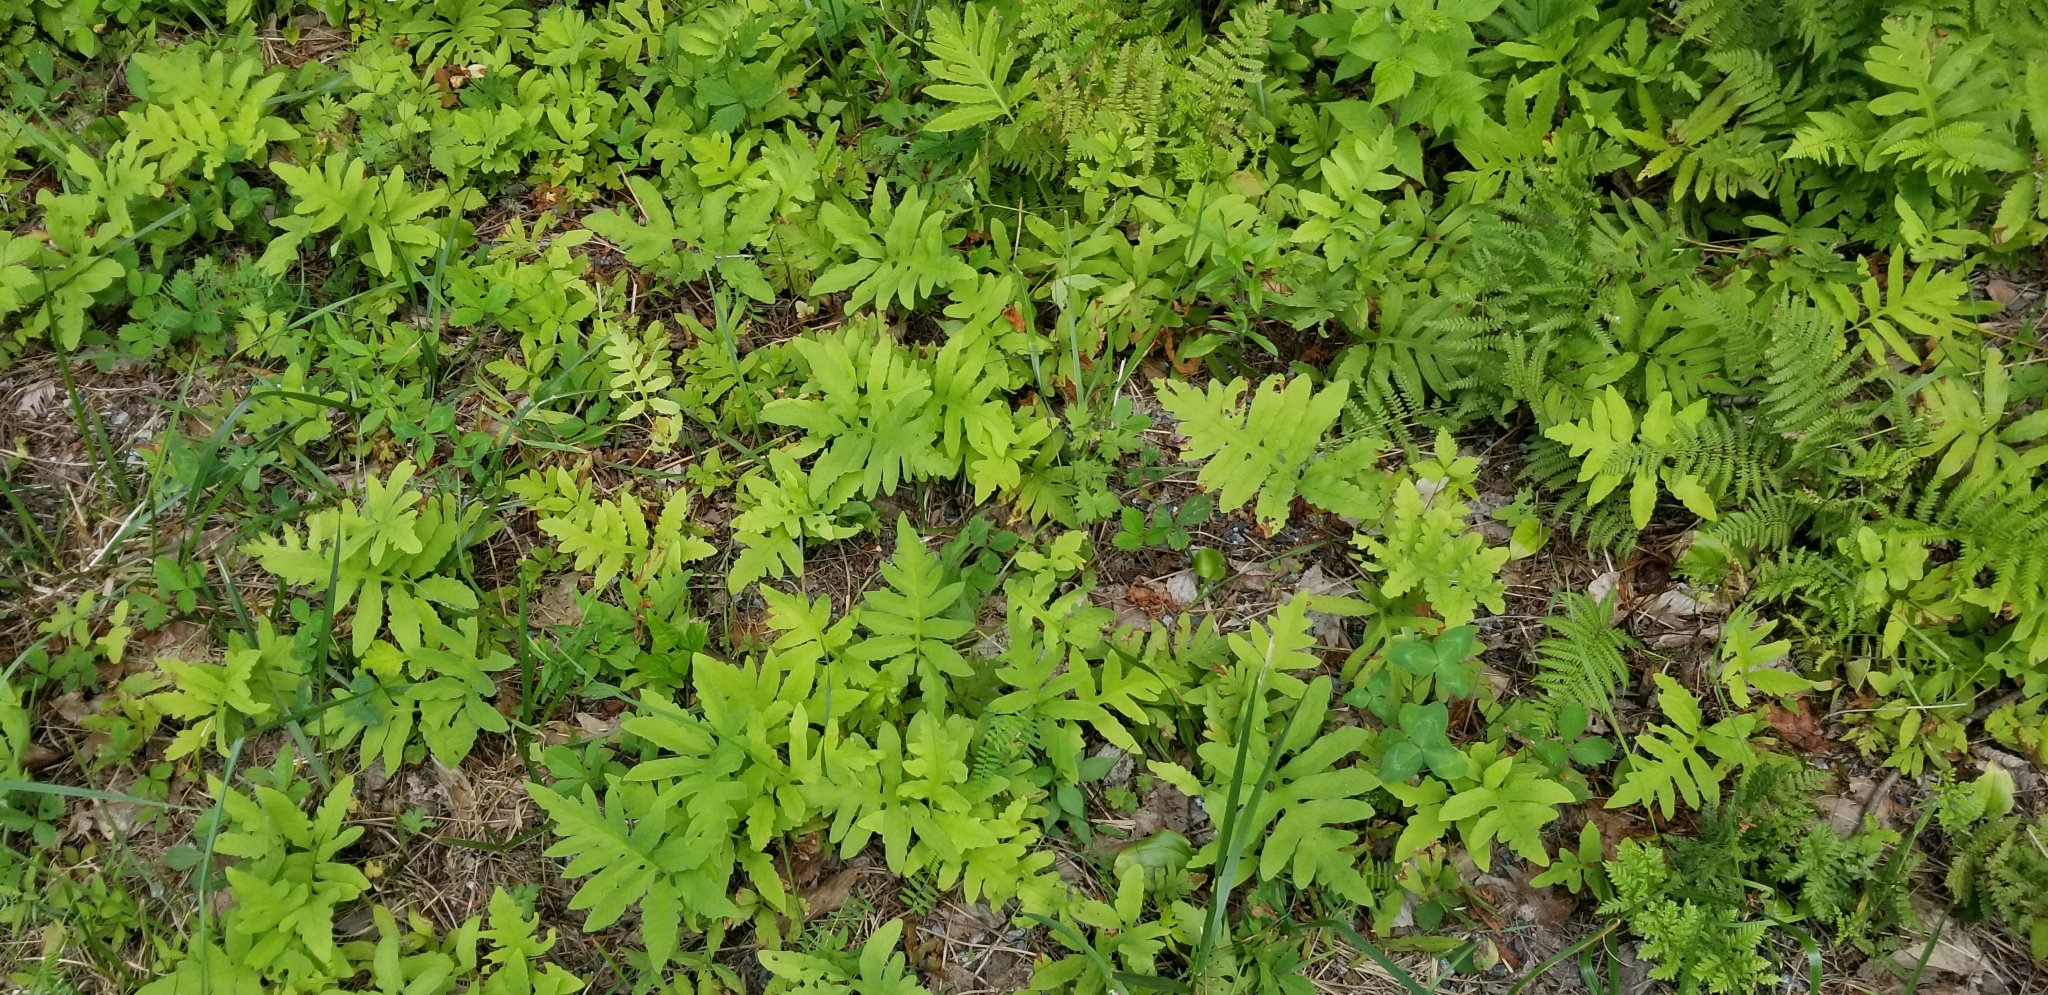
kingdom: Plantae
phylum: Tracheophyta
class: Polypodiopsida
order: Polypodiales
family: Onocleaceae
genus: Onoclea
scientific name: Onoclea sensibilis
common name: Sensitive fern
